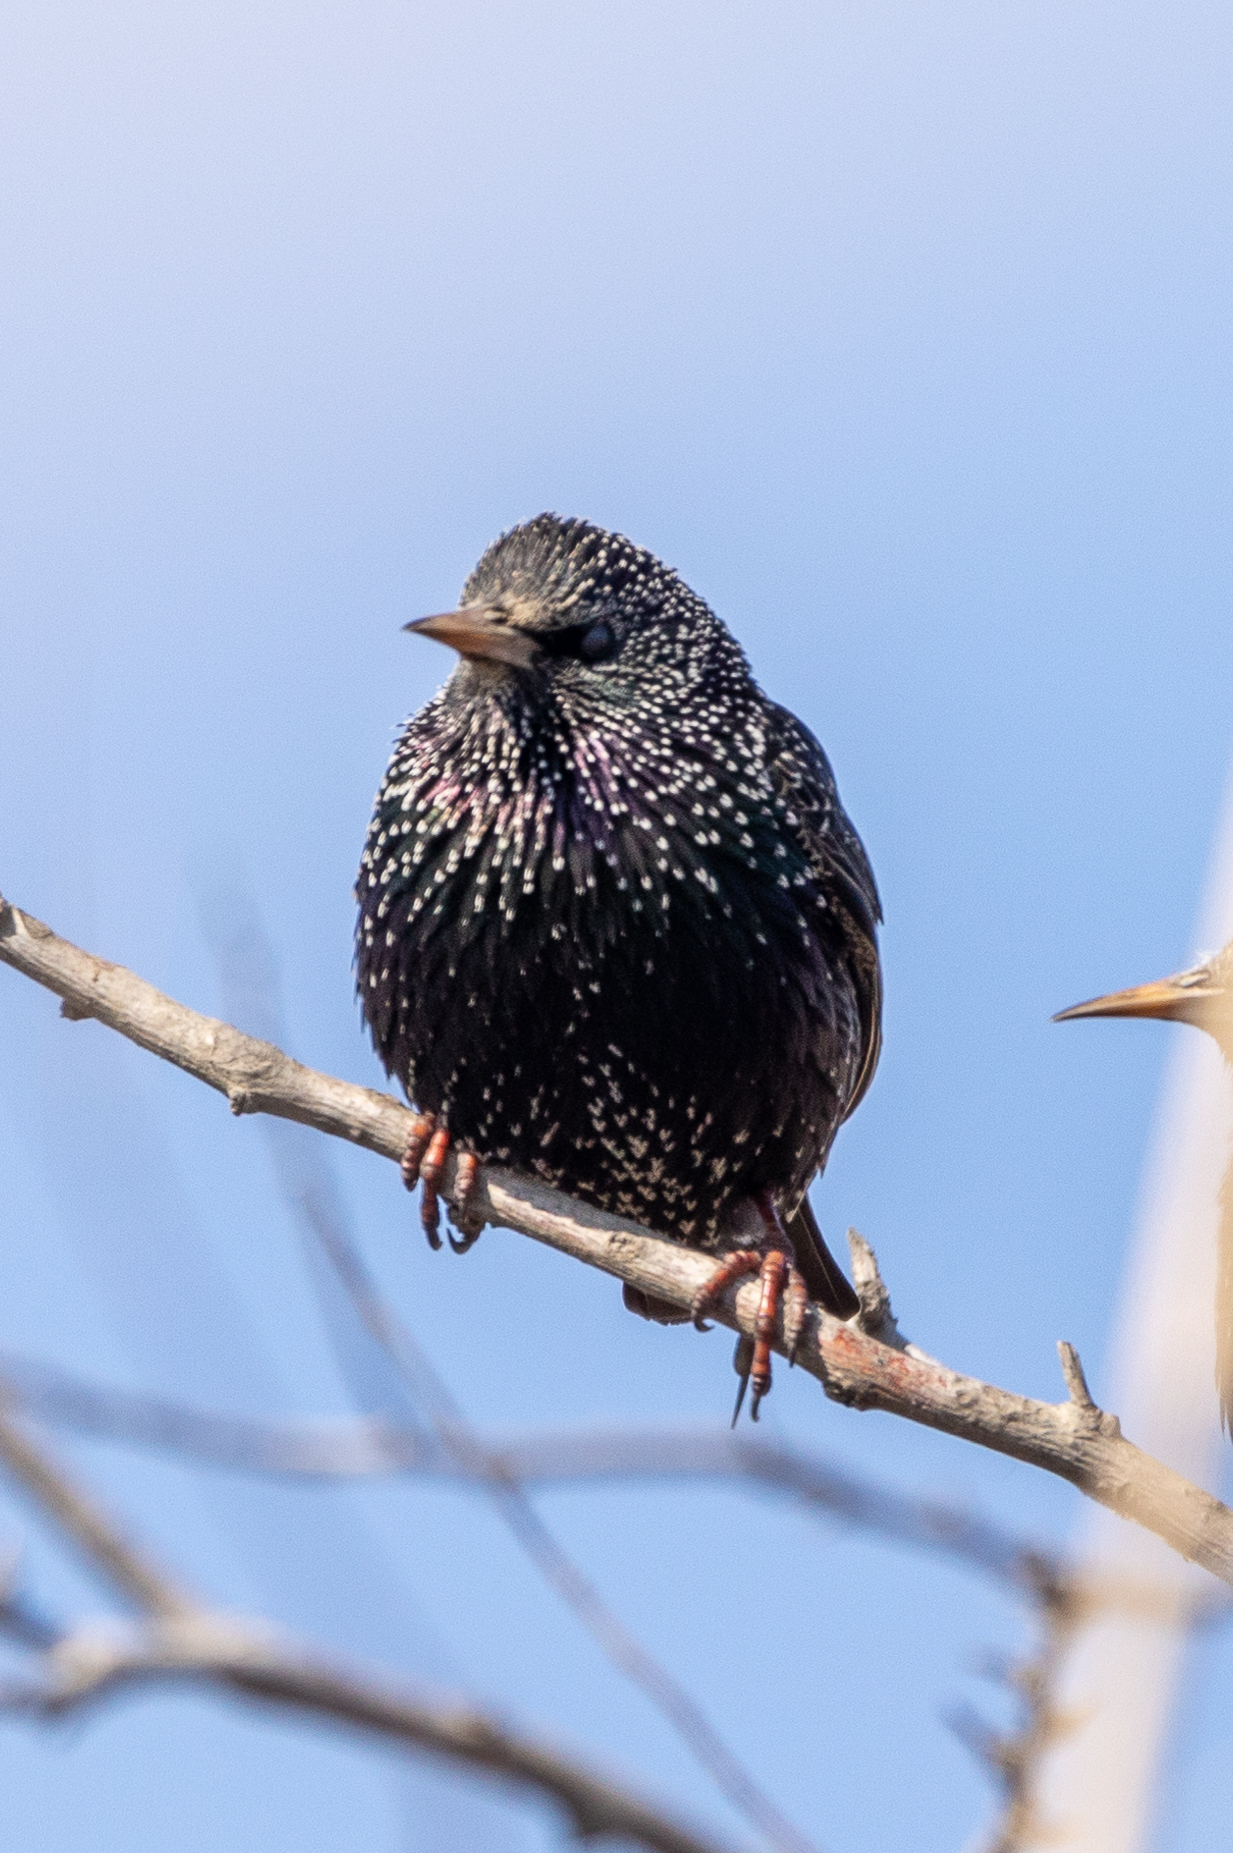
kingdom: Animalia
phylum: Chordata
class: Aves
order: Passeriformes
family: Sturnidae
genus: Sturnus
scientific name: Sturnus vulgaris
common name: Common starling
